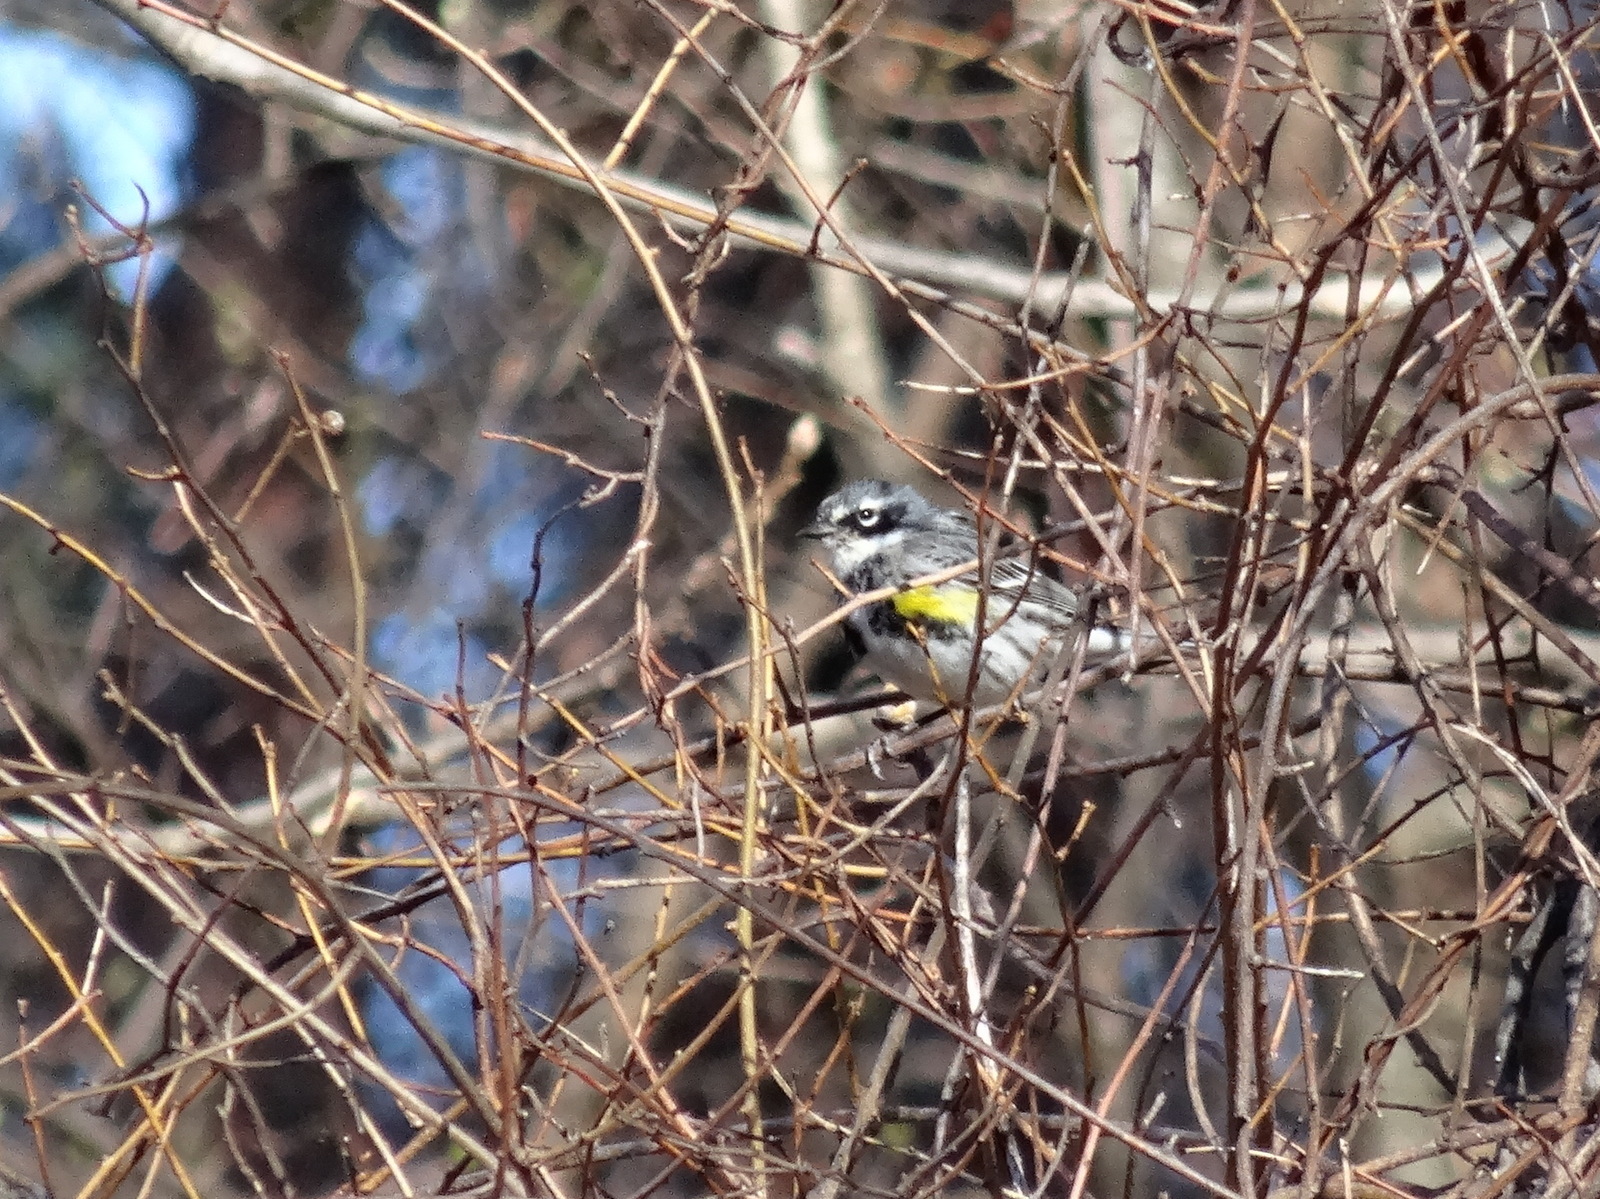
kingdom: Animalia
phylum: Chordata
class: Aves
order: Passeriformes
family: Parulidae
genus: Setophaga
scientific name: Setophaga coronata
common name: Myrtle warbler
